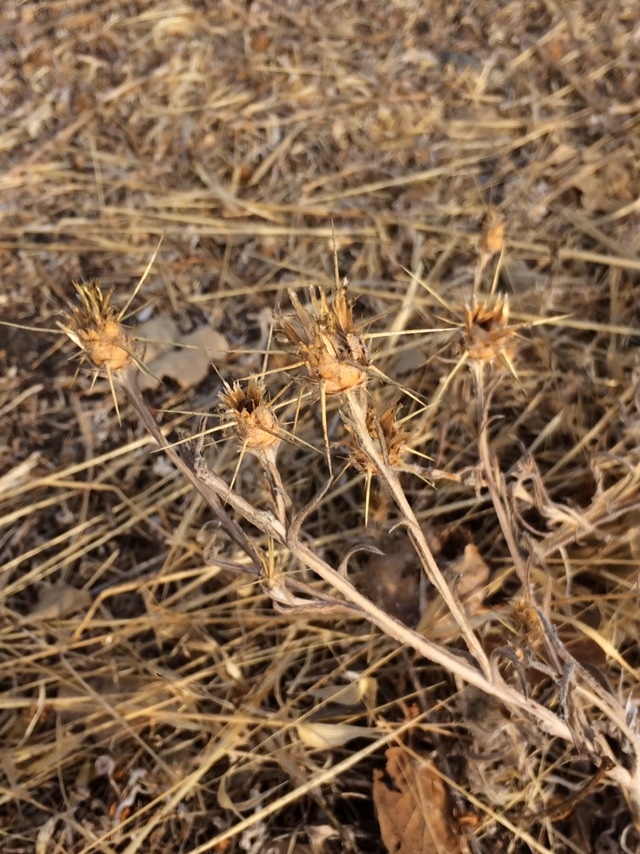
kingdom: Plantae
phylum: Tracheophyta
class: Magnoliopsida
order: Asterales
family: Asteraceae
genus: Centaurea
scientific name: Centaurea solstitialis
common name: Yellow star-thistle
